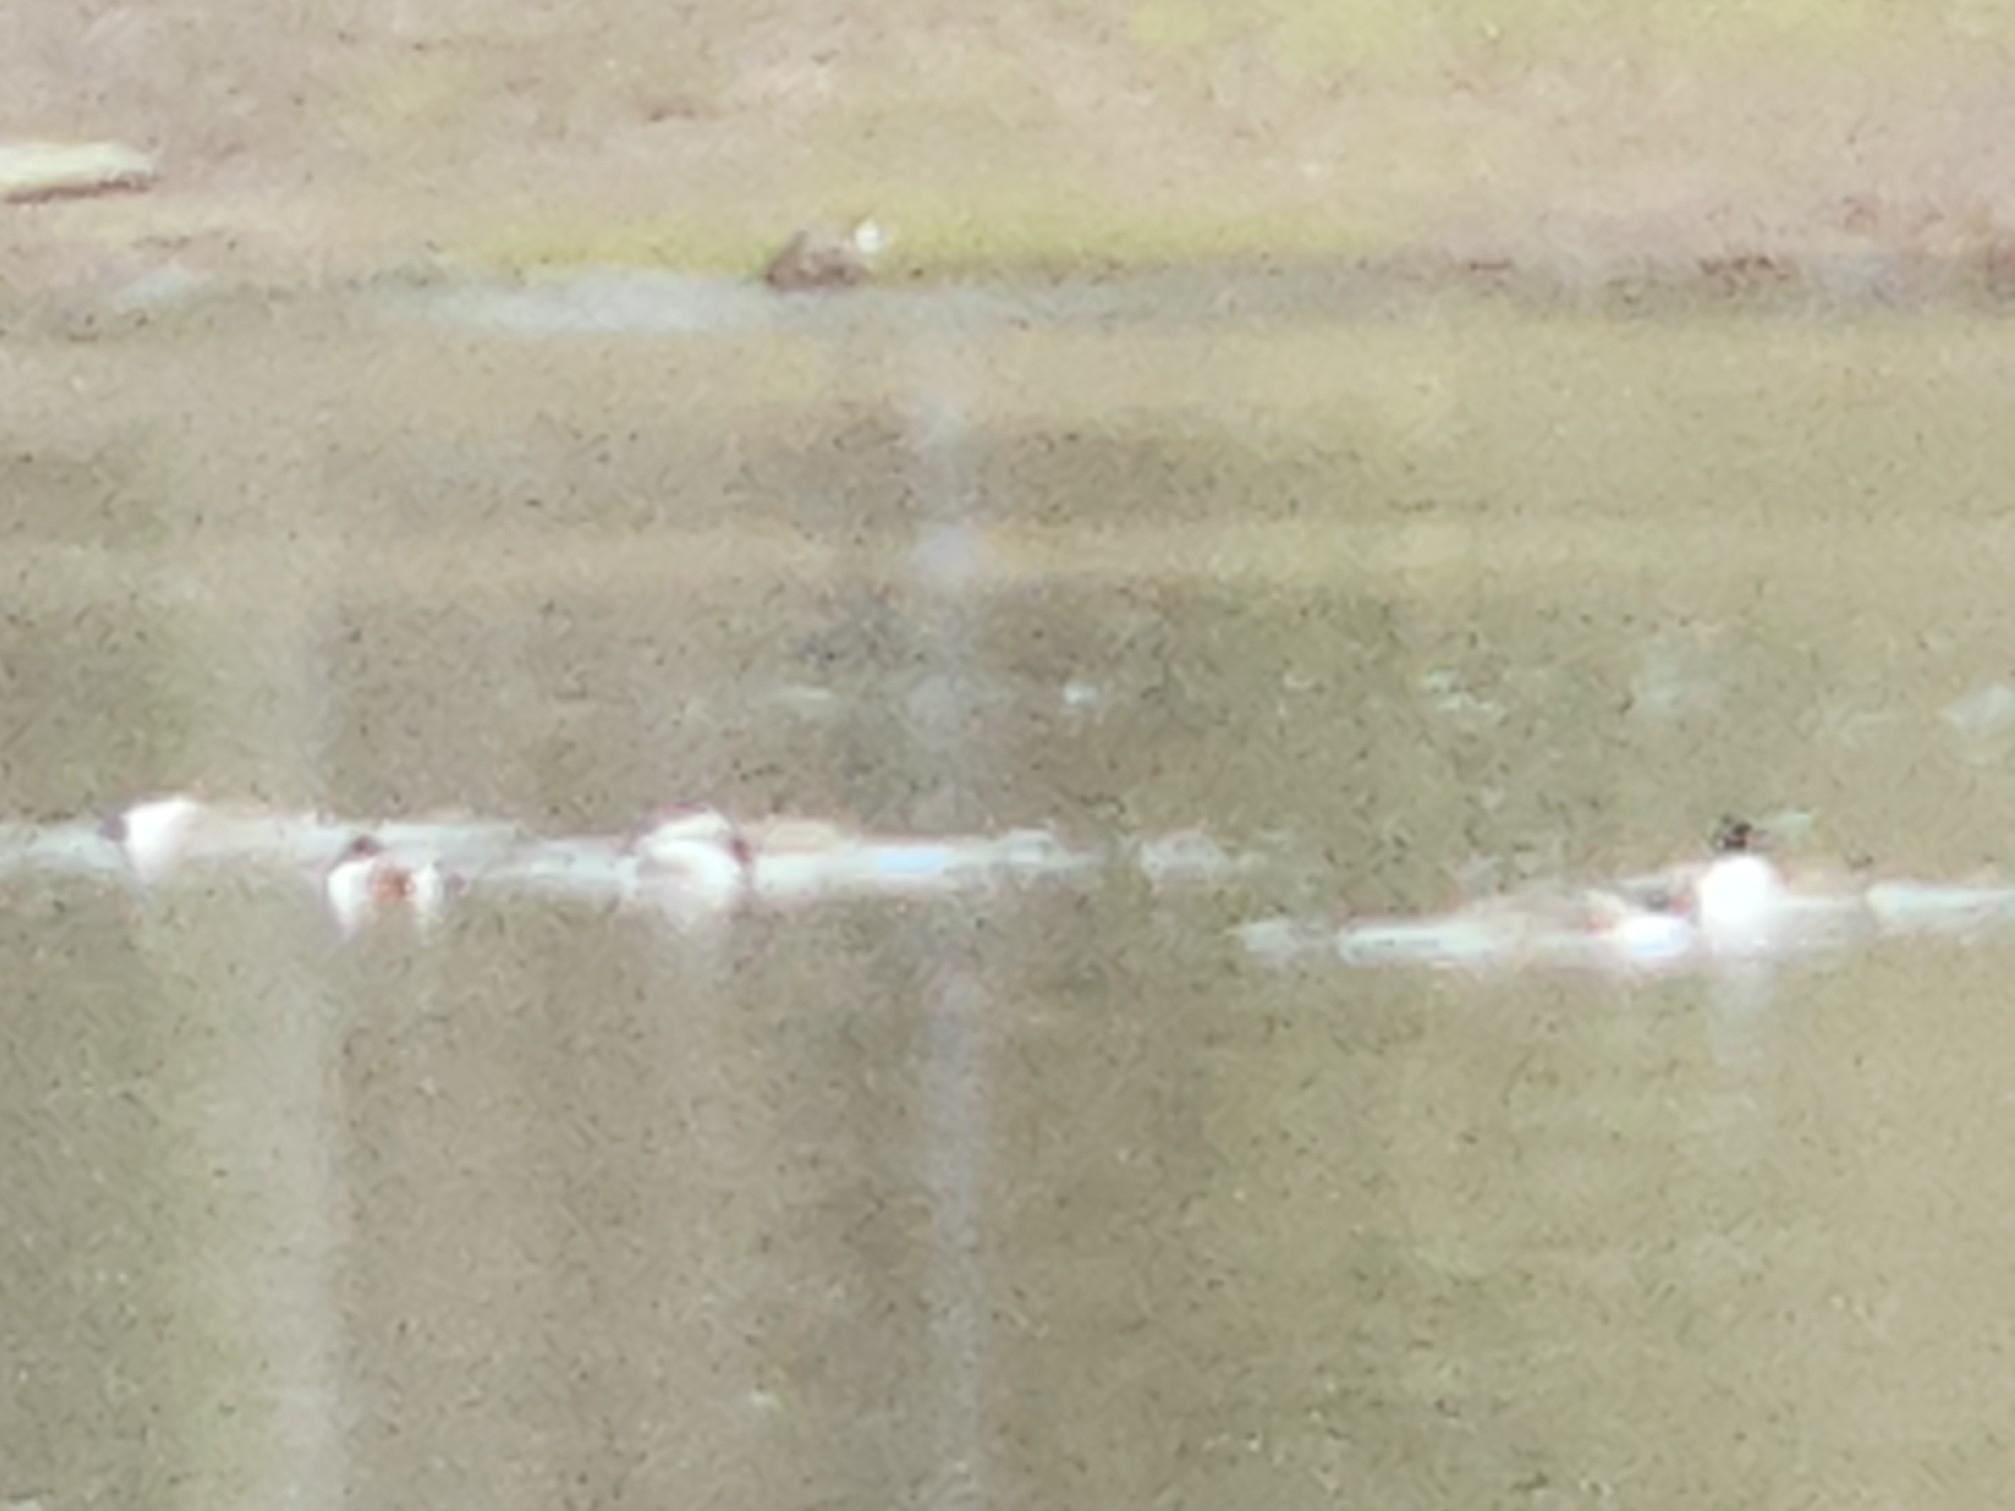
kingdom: Animalia
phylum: Chordata
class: Aves
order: Anseriformes
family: Anatidae
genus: Spatula
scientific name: Spatula clypeata
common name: Northern shoveler
